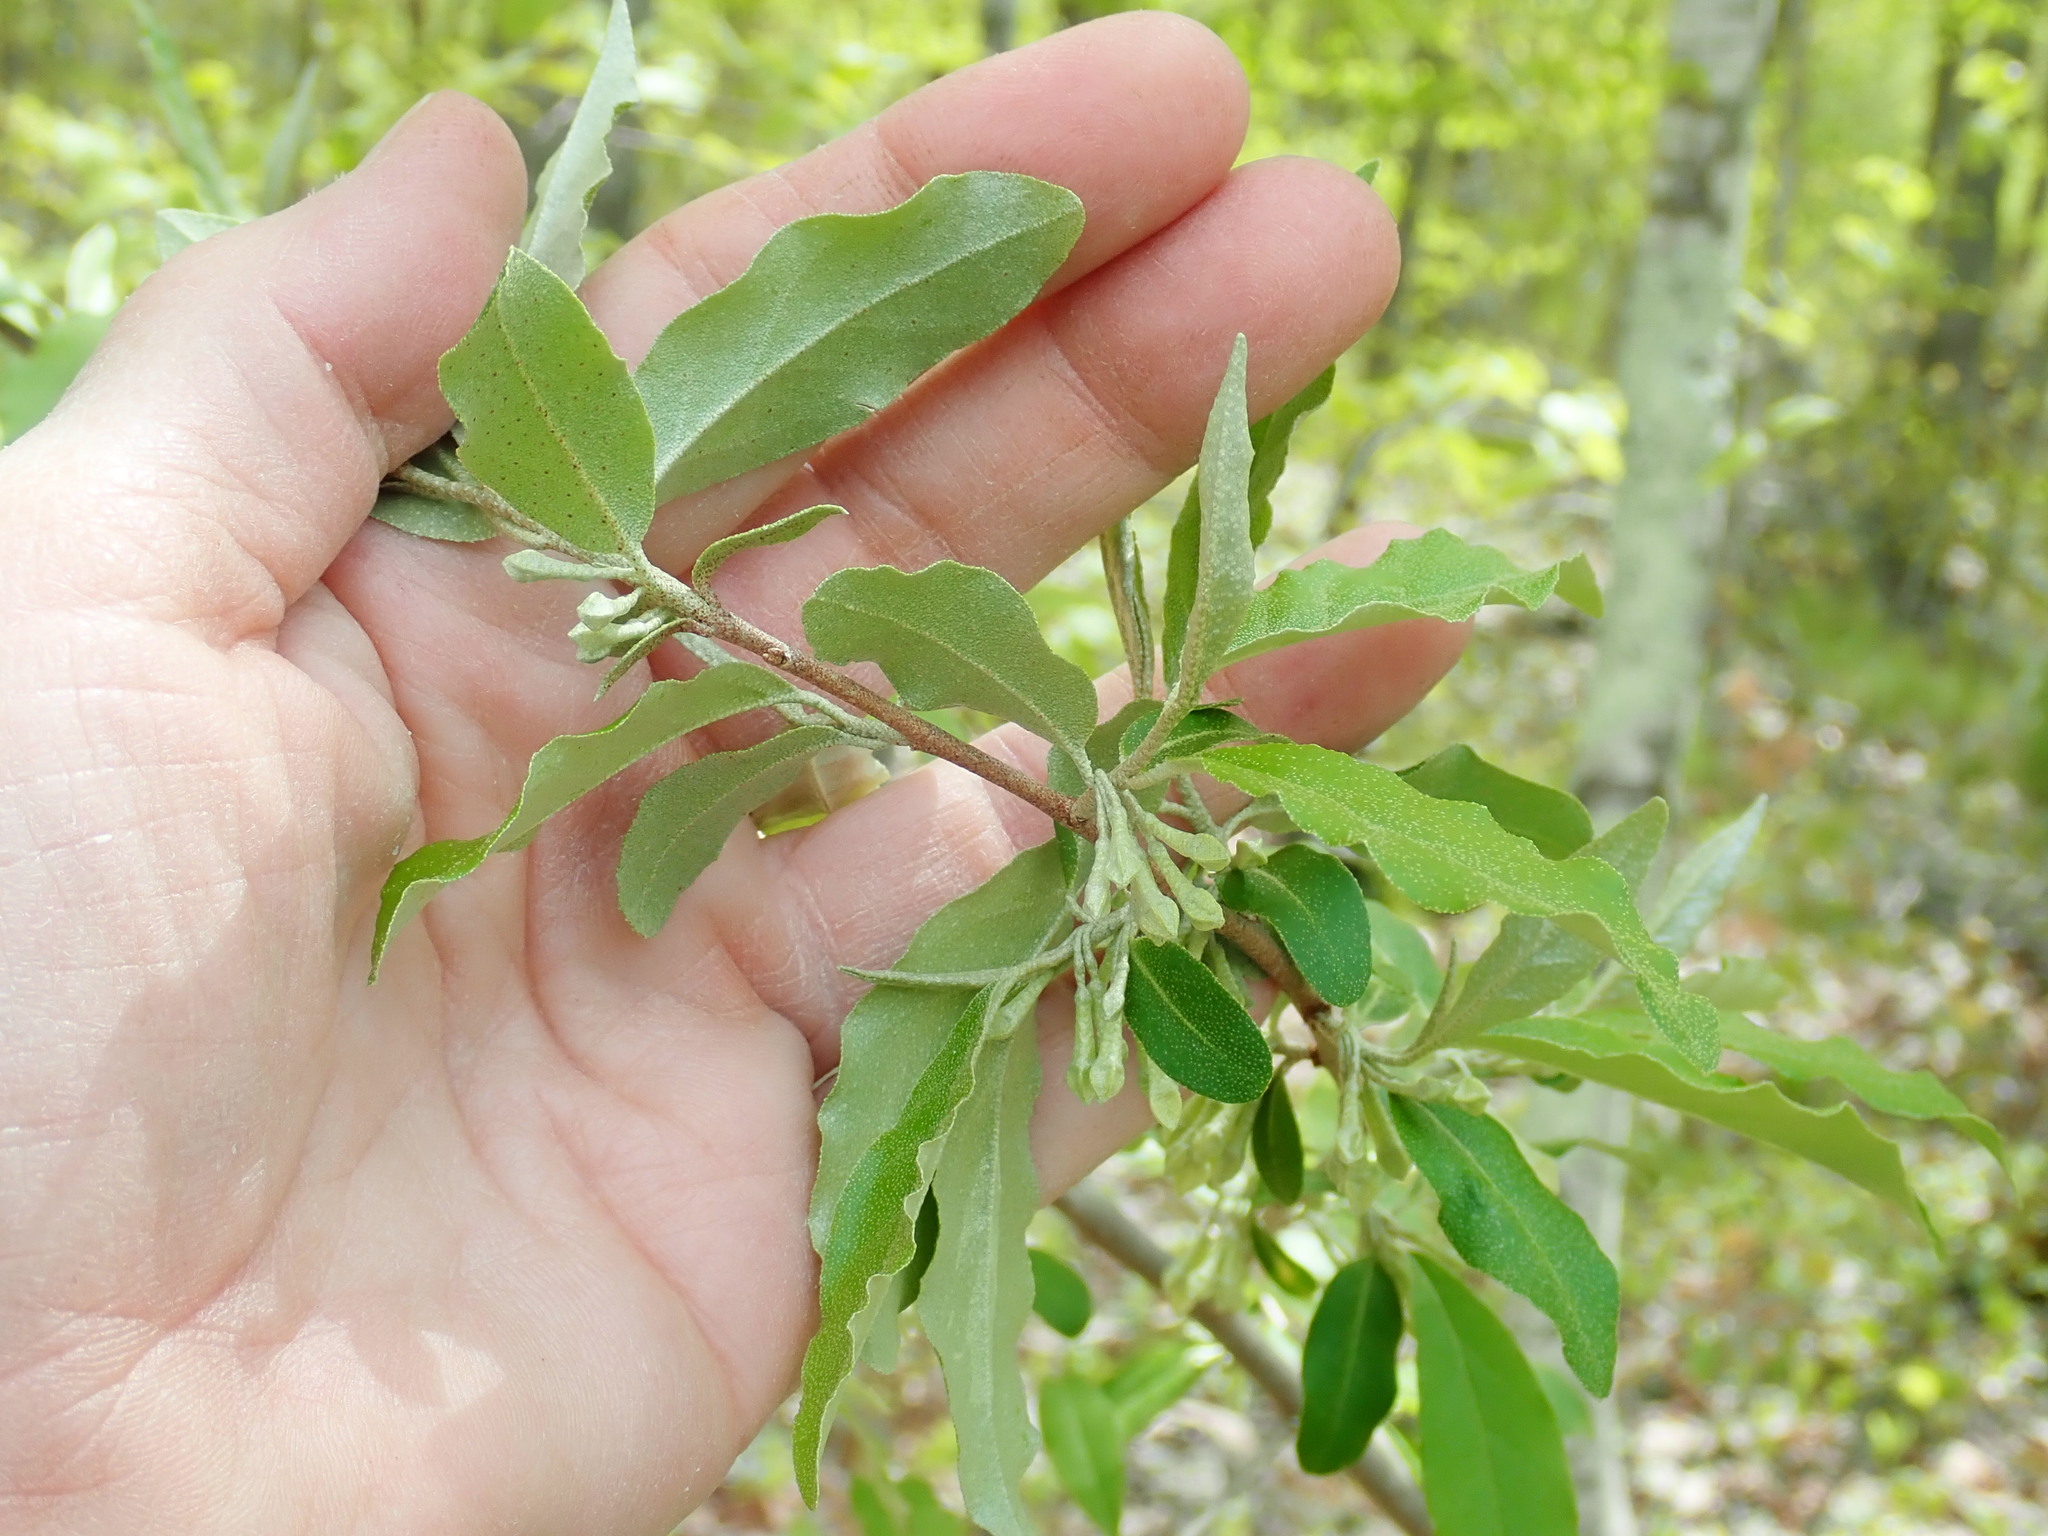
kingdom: Plantae
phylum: Tracheophyta
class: Magnoliopsida
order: Rosales
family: Elaeagnaceae
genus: Elaeagnus
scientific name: Elaeagnus umbellata
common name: Autumn olive
